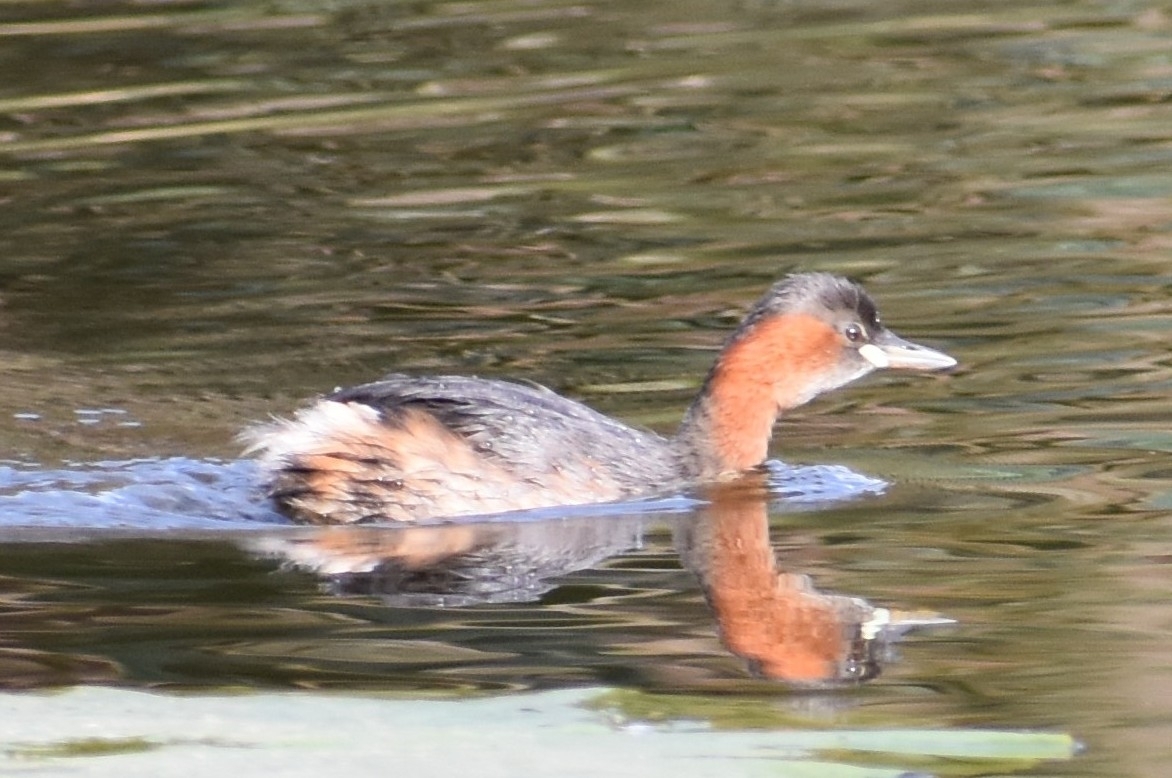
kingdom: Animalia
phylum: Chordata
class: Aves
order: Podicipediformes
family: Podicipedidae
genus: Tachybaptus
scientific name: Tachybaptus ruficollis
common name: Little grebe
